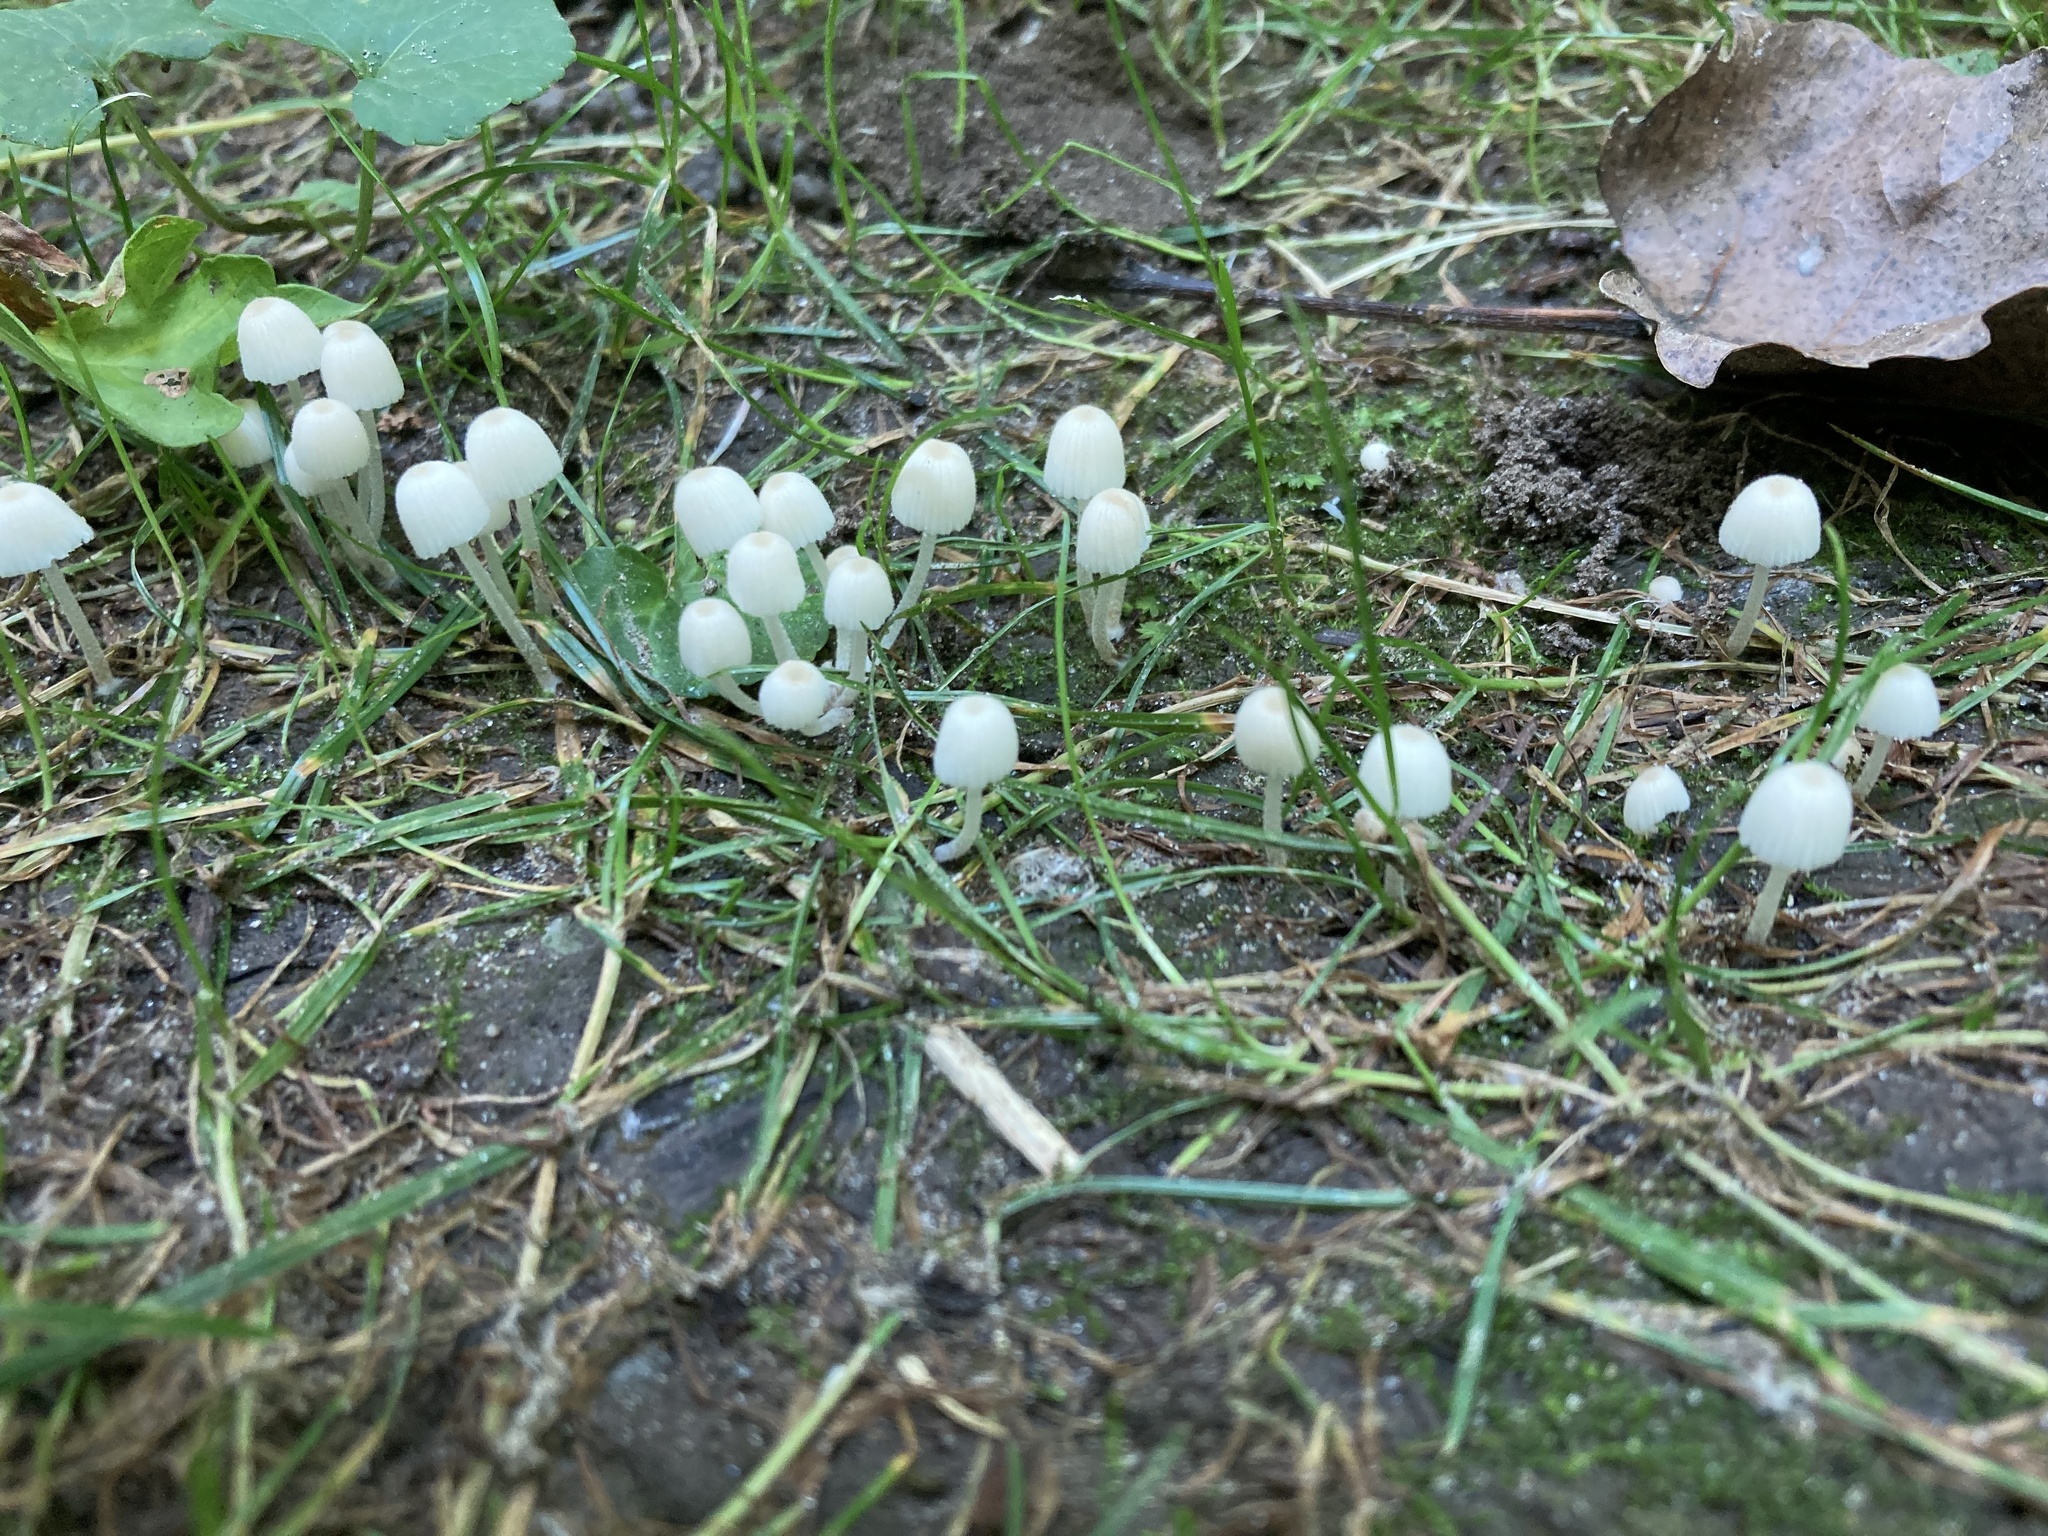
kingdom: Fungi
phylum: Basidiomycota
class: Agaricomycetes
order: Agaricales
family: Psathyrellaceae
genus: Coprinellus
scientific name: Coprinellus disseminatus
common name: Fairies' bonnets
